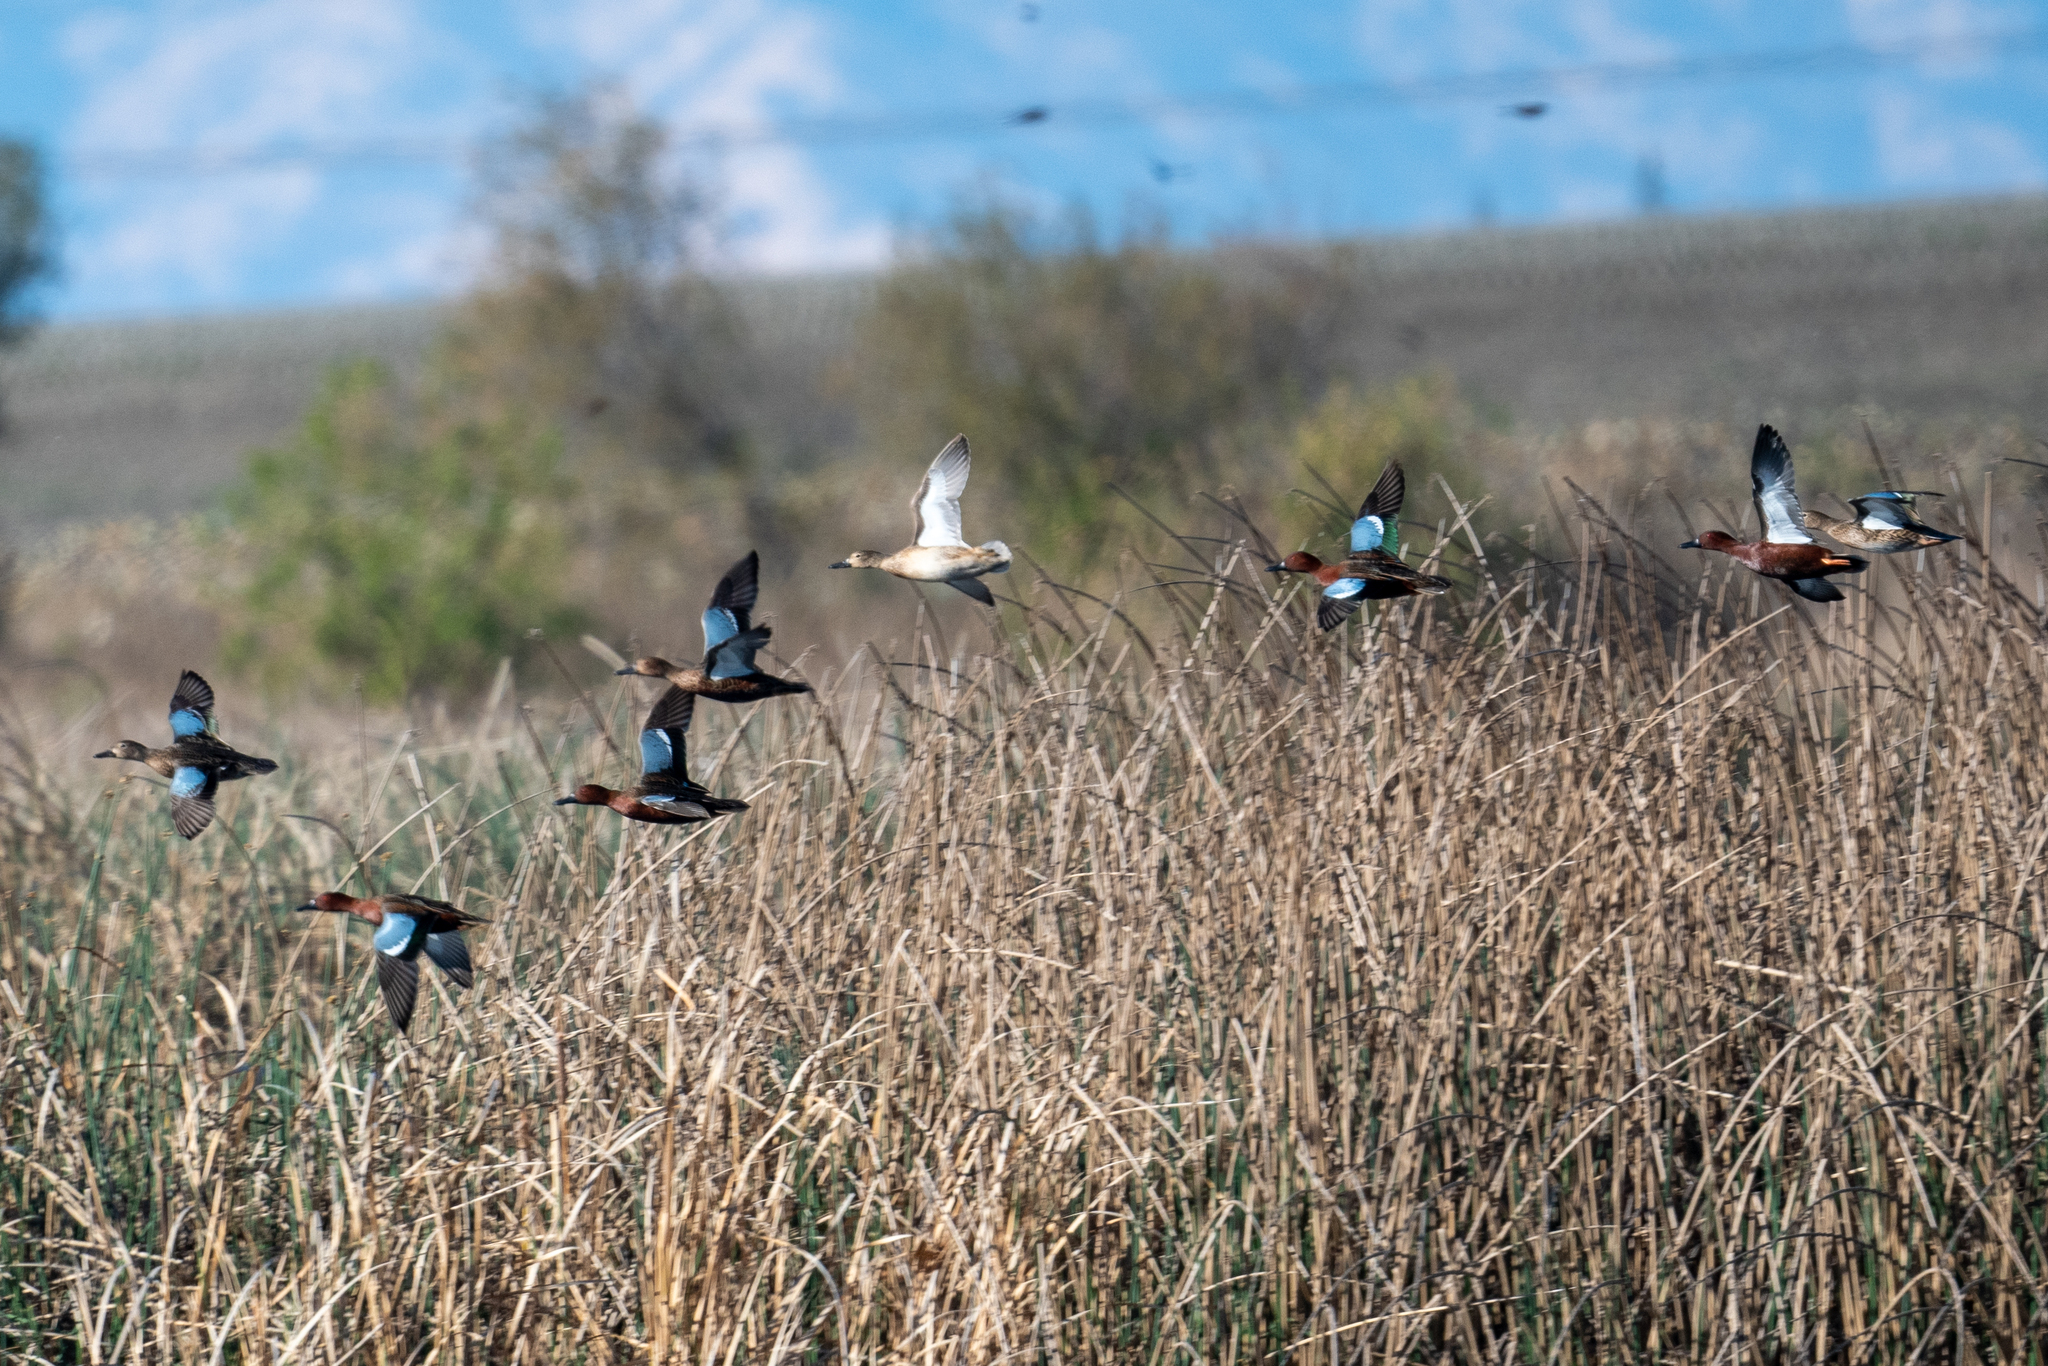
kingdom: Animalia
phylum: Chordata
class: Aves
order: Anseriformes
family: Anatidae
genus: Spatula
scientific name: Spatula cyanoptera
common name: Cinnamon teal
